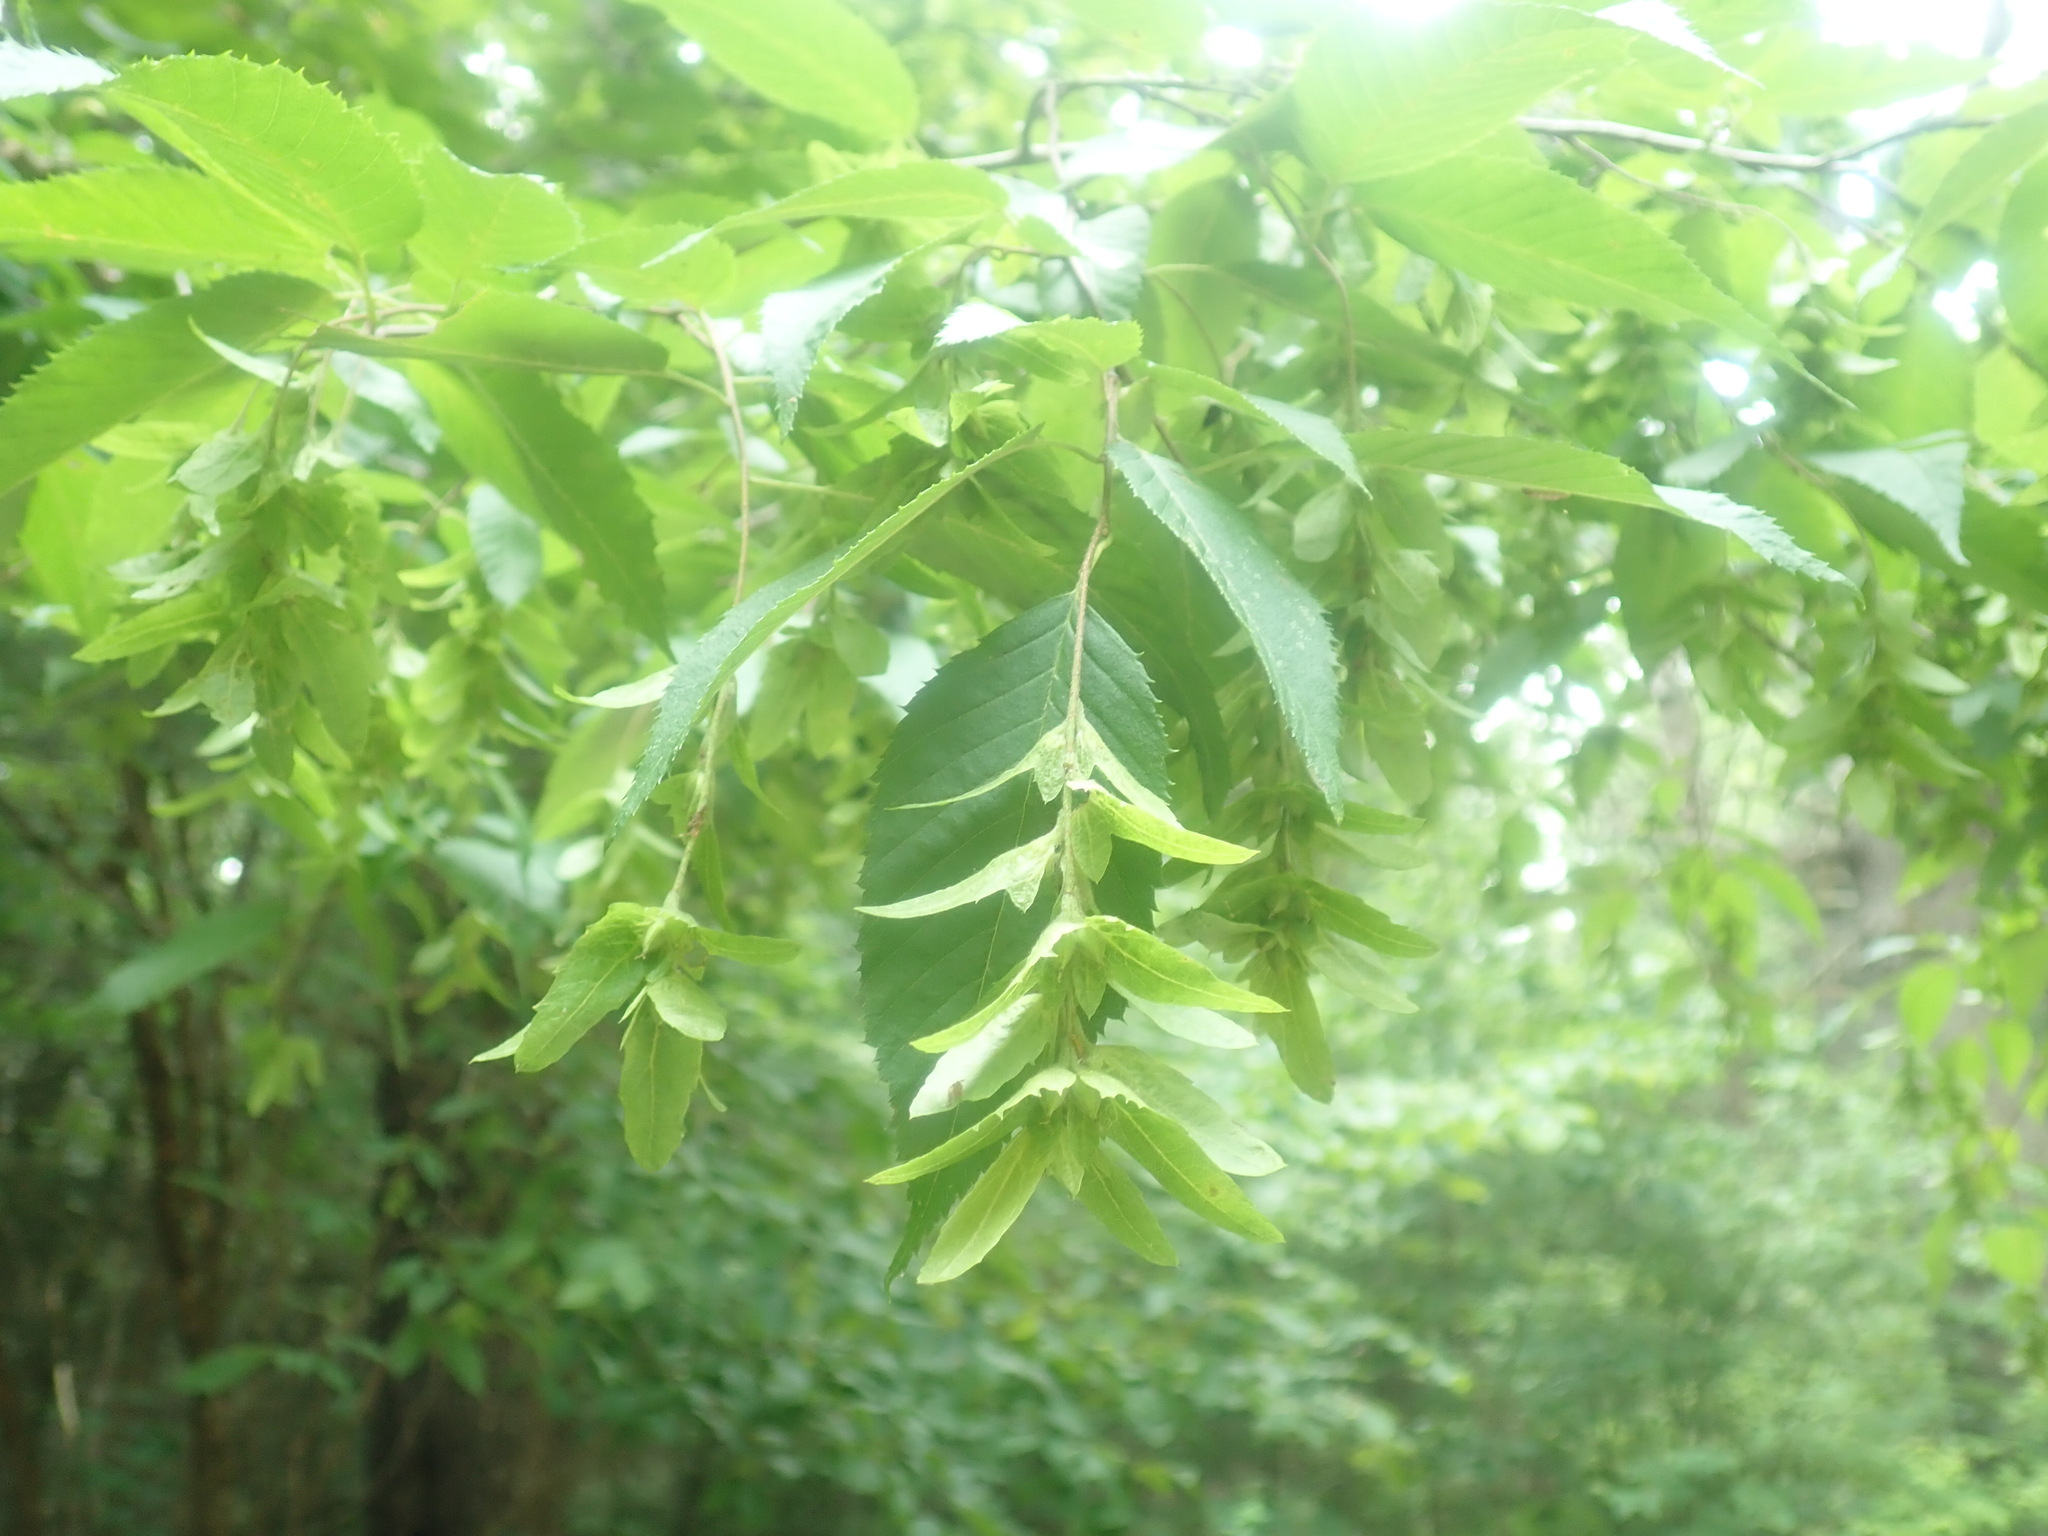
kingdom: Plantae
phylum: Tracheophyta
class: Magnoliopsida
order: Fagales
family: Betulaceae
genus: Carpinus
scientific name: Carpinus caroliniana
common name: American hornbeam
